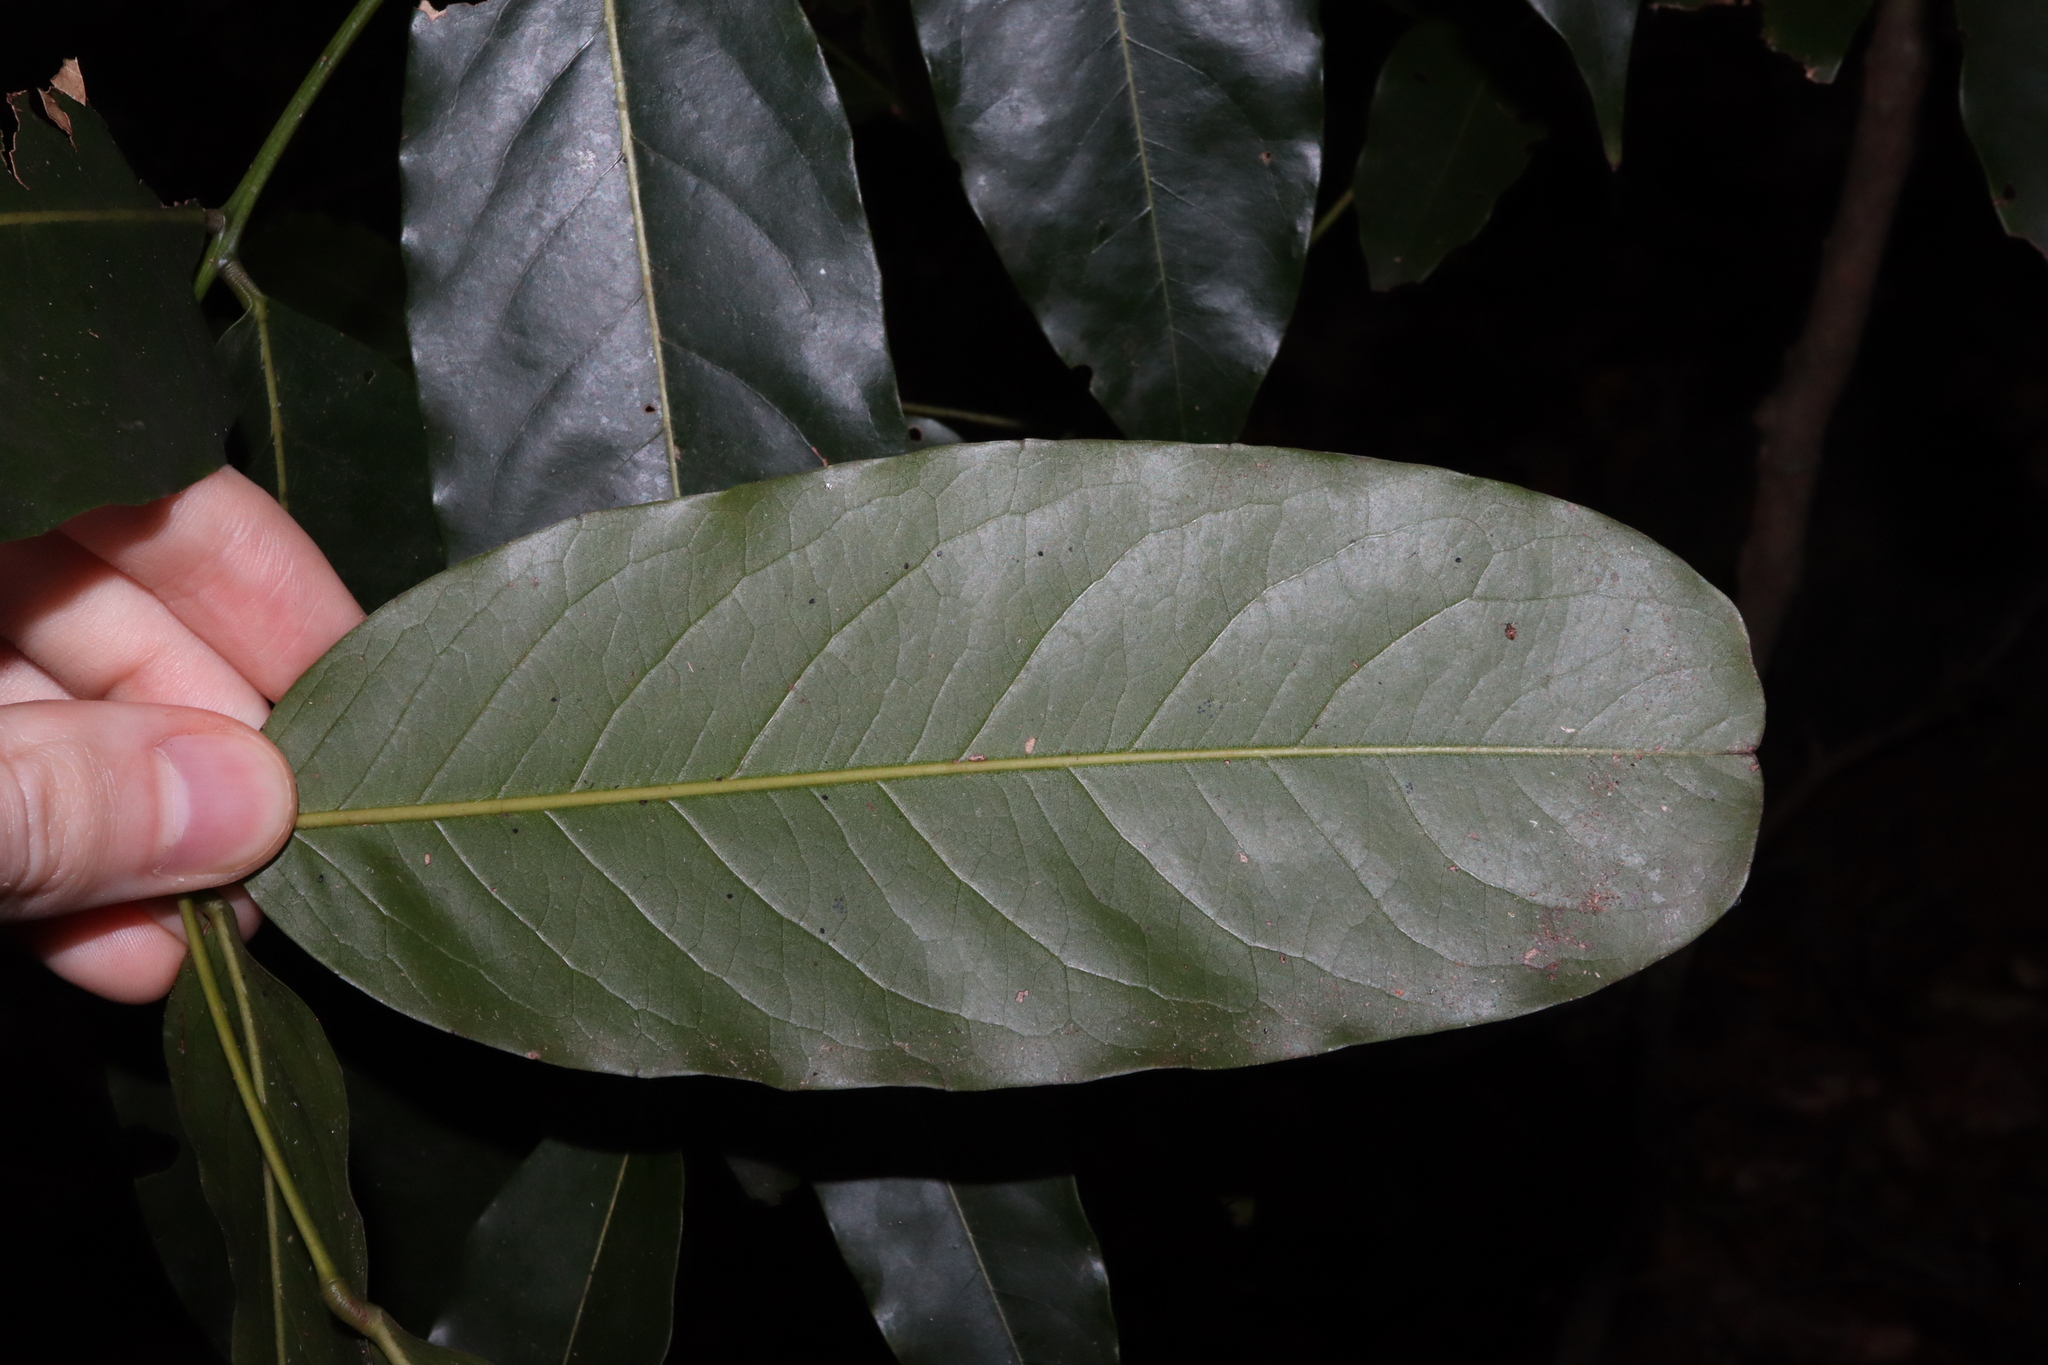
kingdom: Plantae
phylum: Tracheophyta
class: Magnoliopsida
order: Fabales
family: Fabaceae
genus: Castanospermum
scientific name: Castanospermum australe
